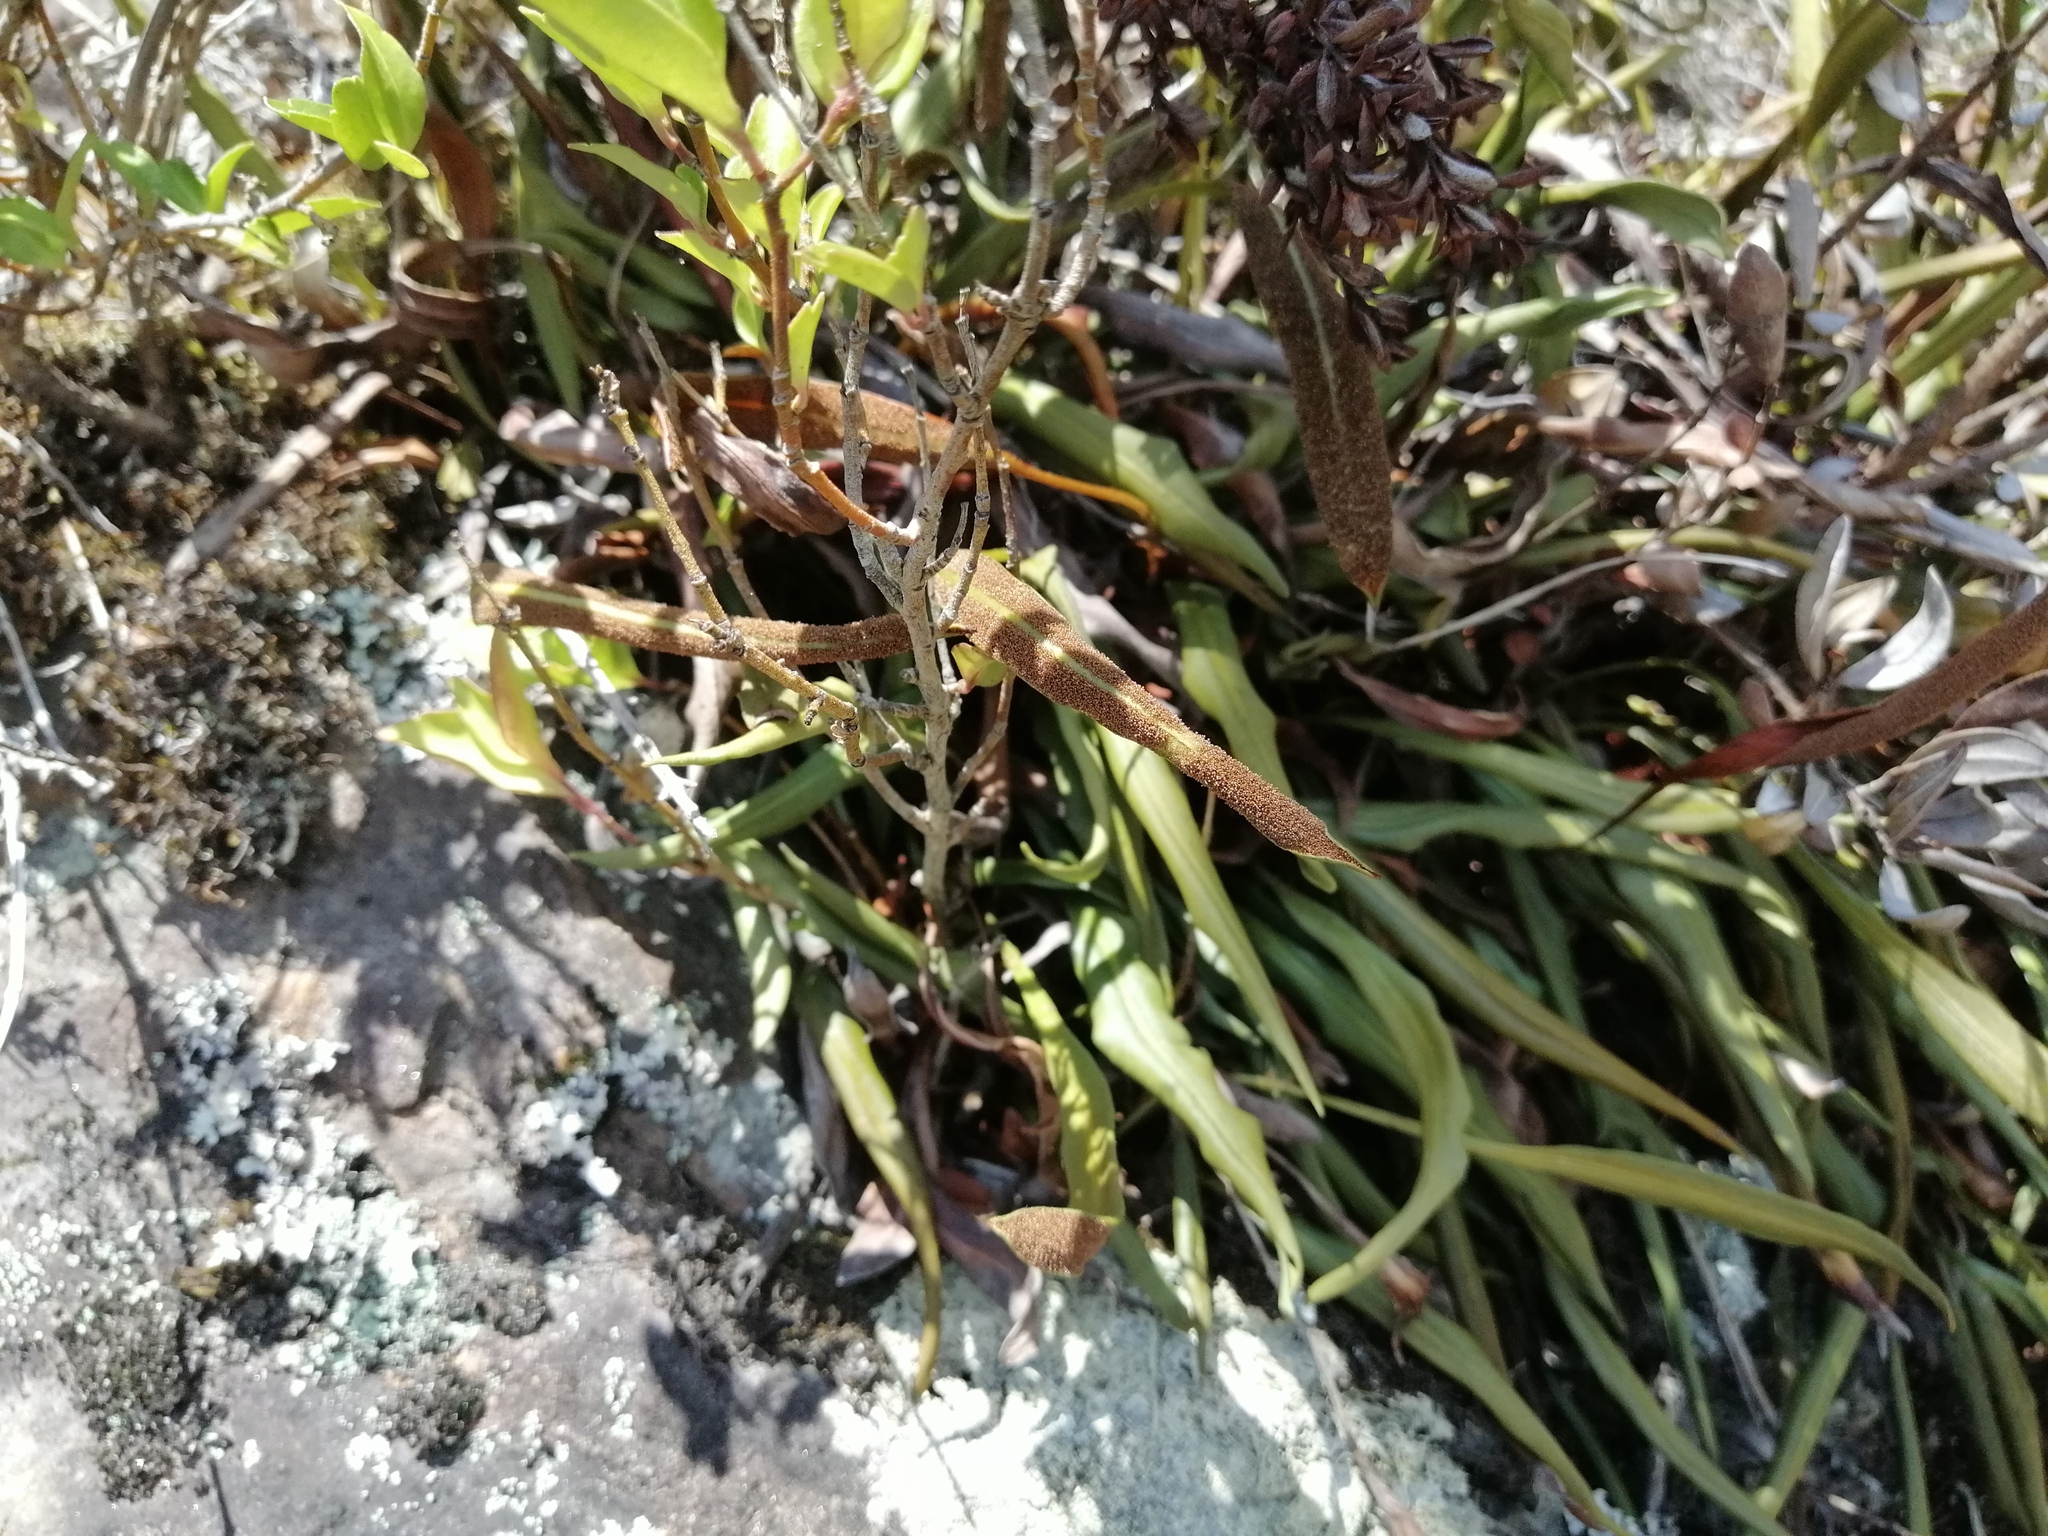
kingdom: Plantae
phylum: Tracheophyta
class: Polypodiopsida
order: Polypodiales
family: Dryopteridaceae
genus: Elaphoglossum
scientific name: Elaphoglossum gayanum
